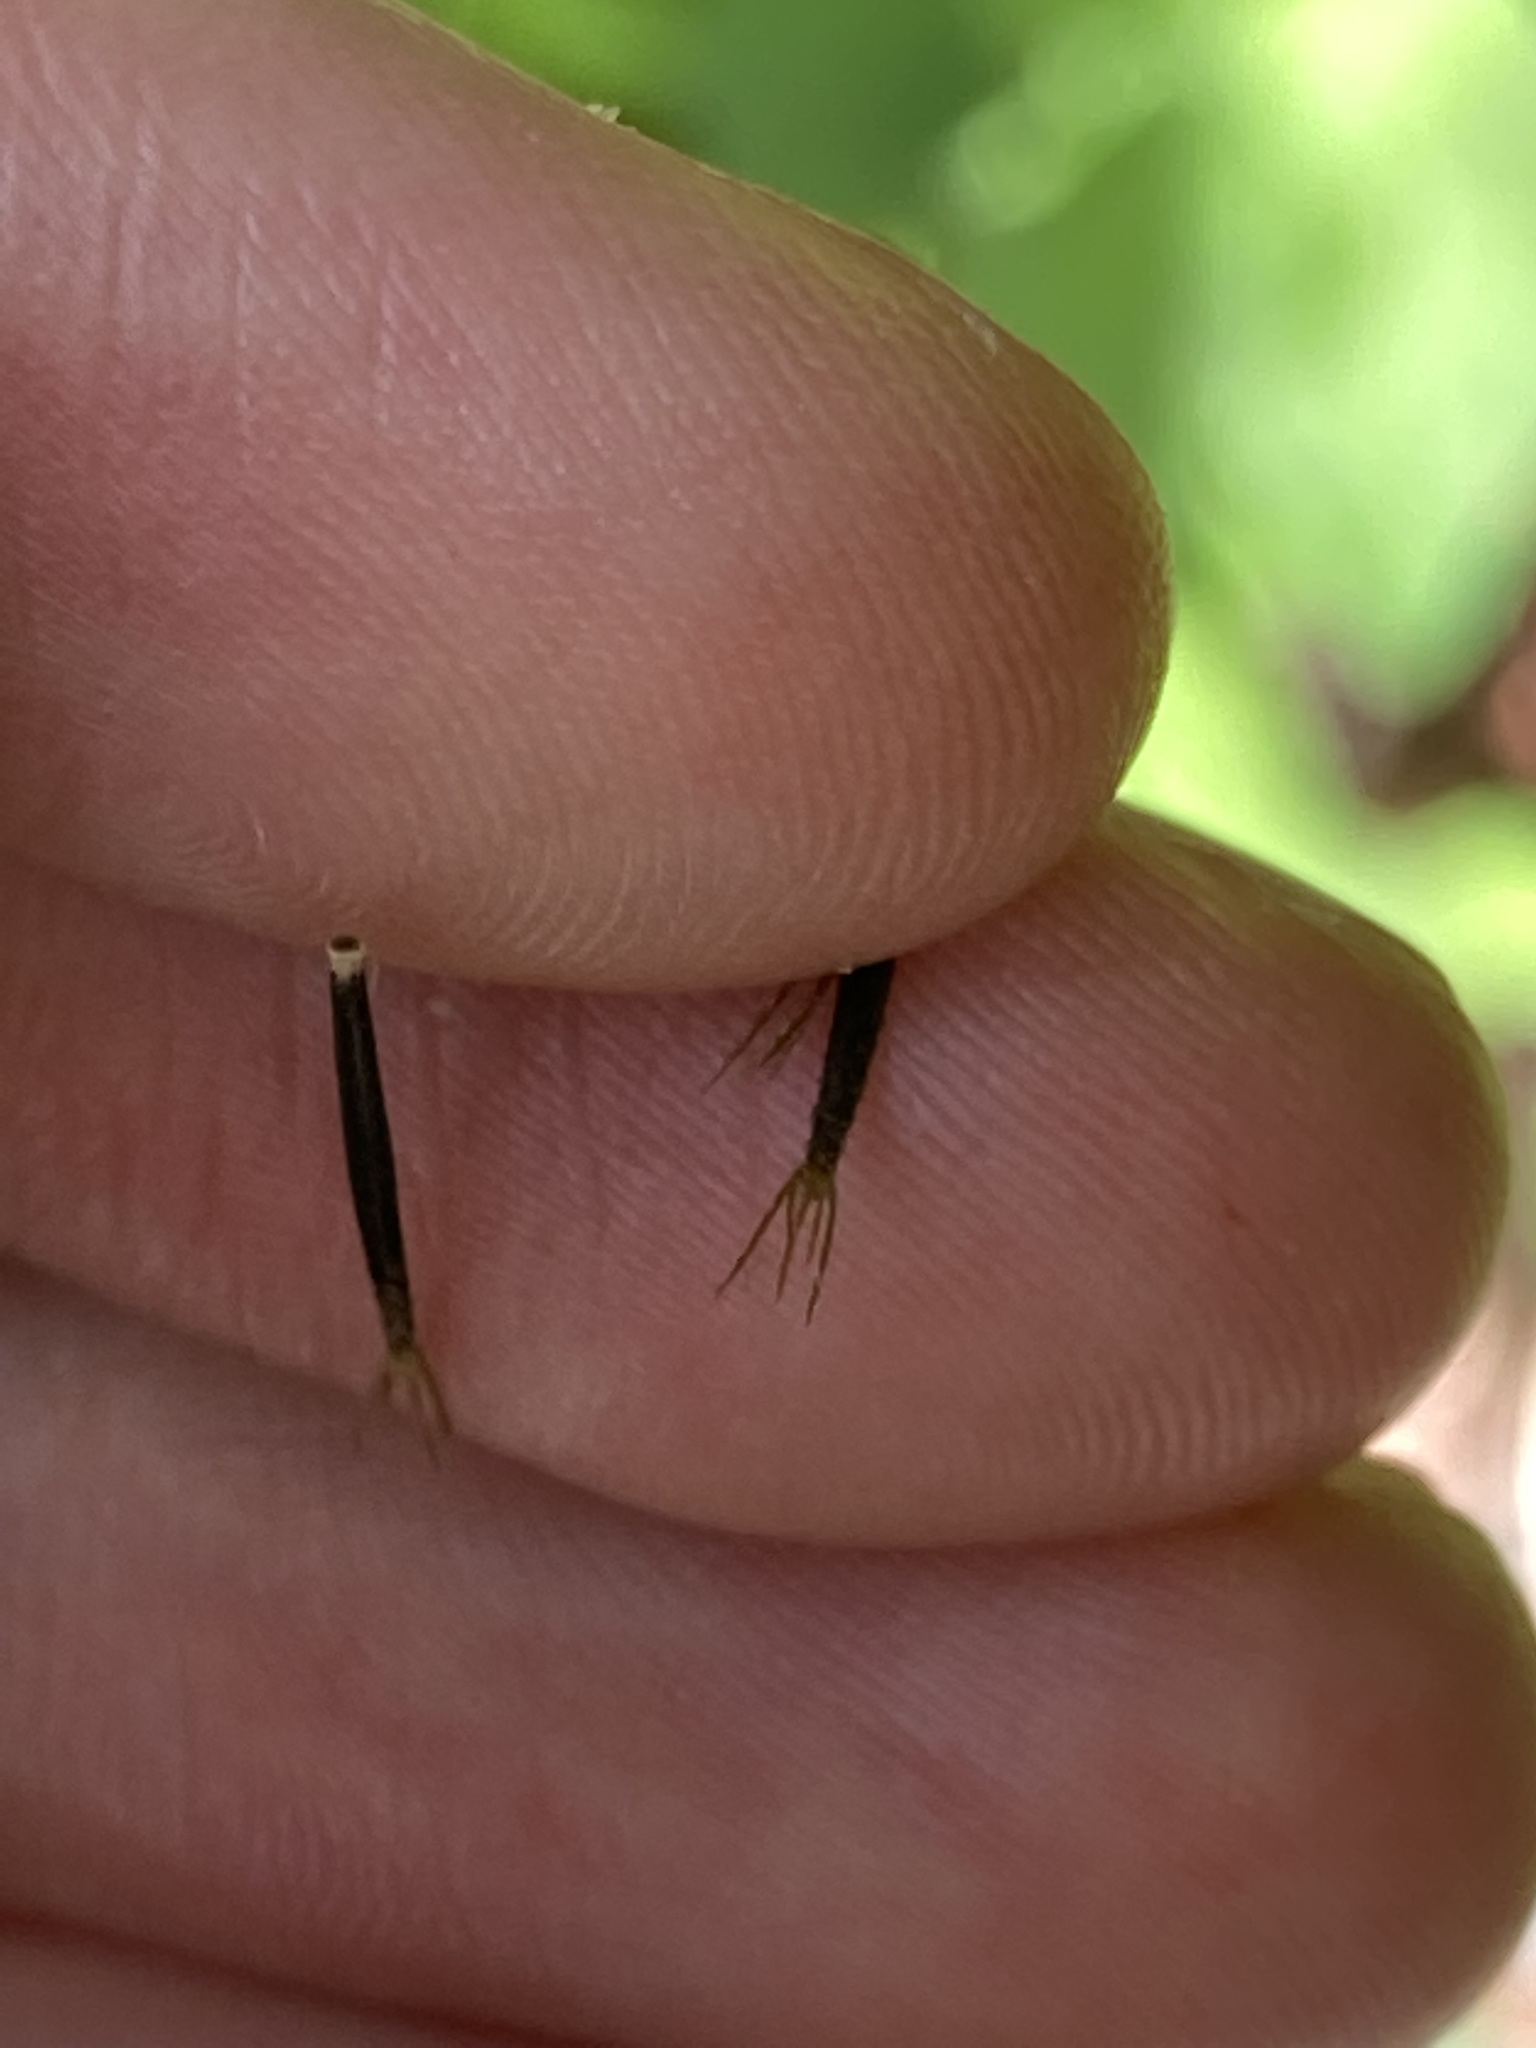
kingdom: Plantae
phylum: Tracheophyta
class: Magnoliopsida
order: Asterales
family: Asteraceae
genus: Bidens
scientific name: Bidens pilosa
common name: Black-jack
